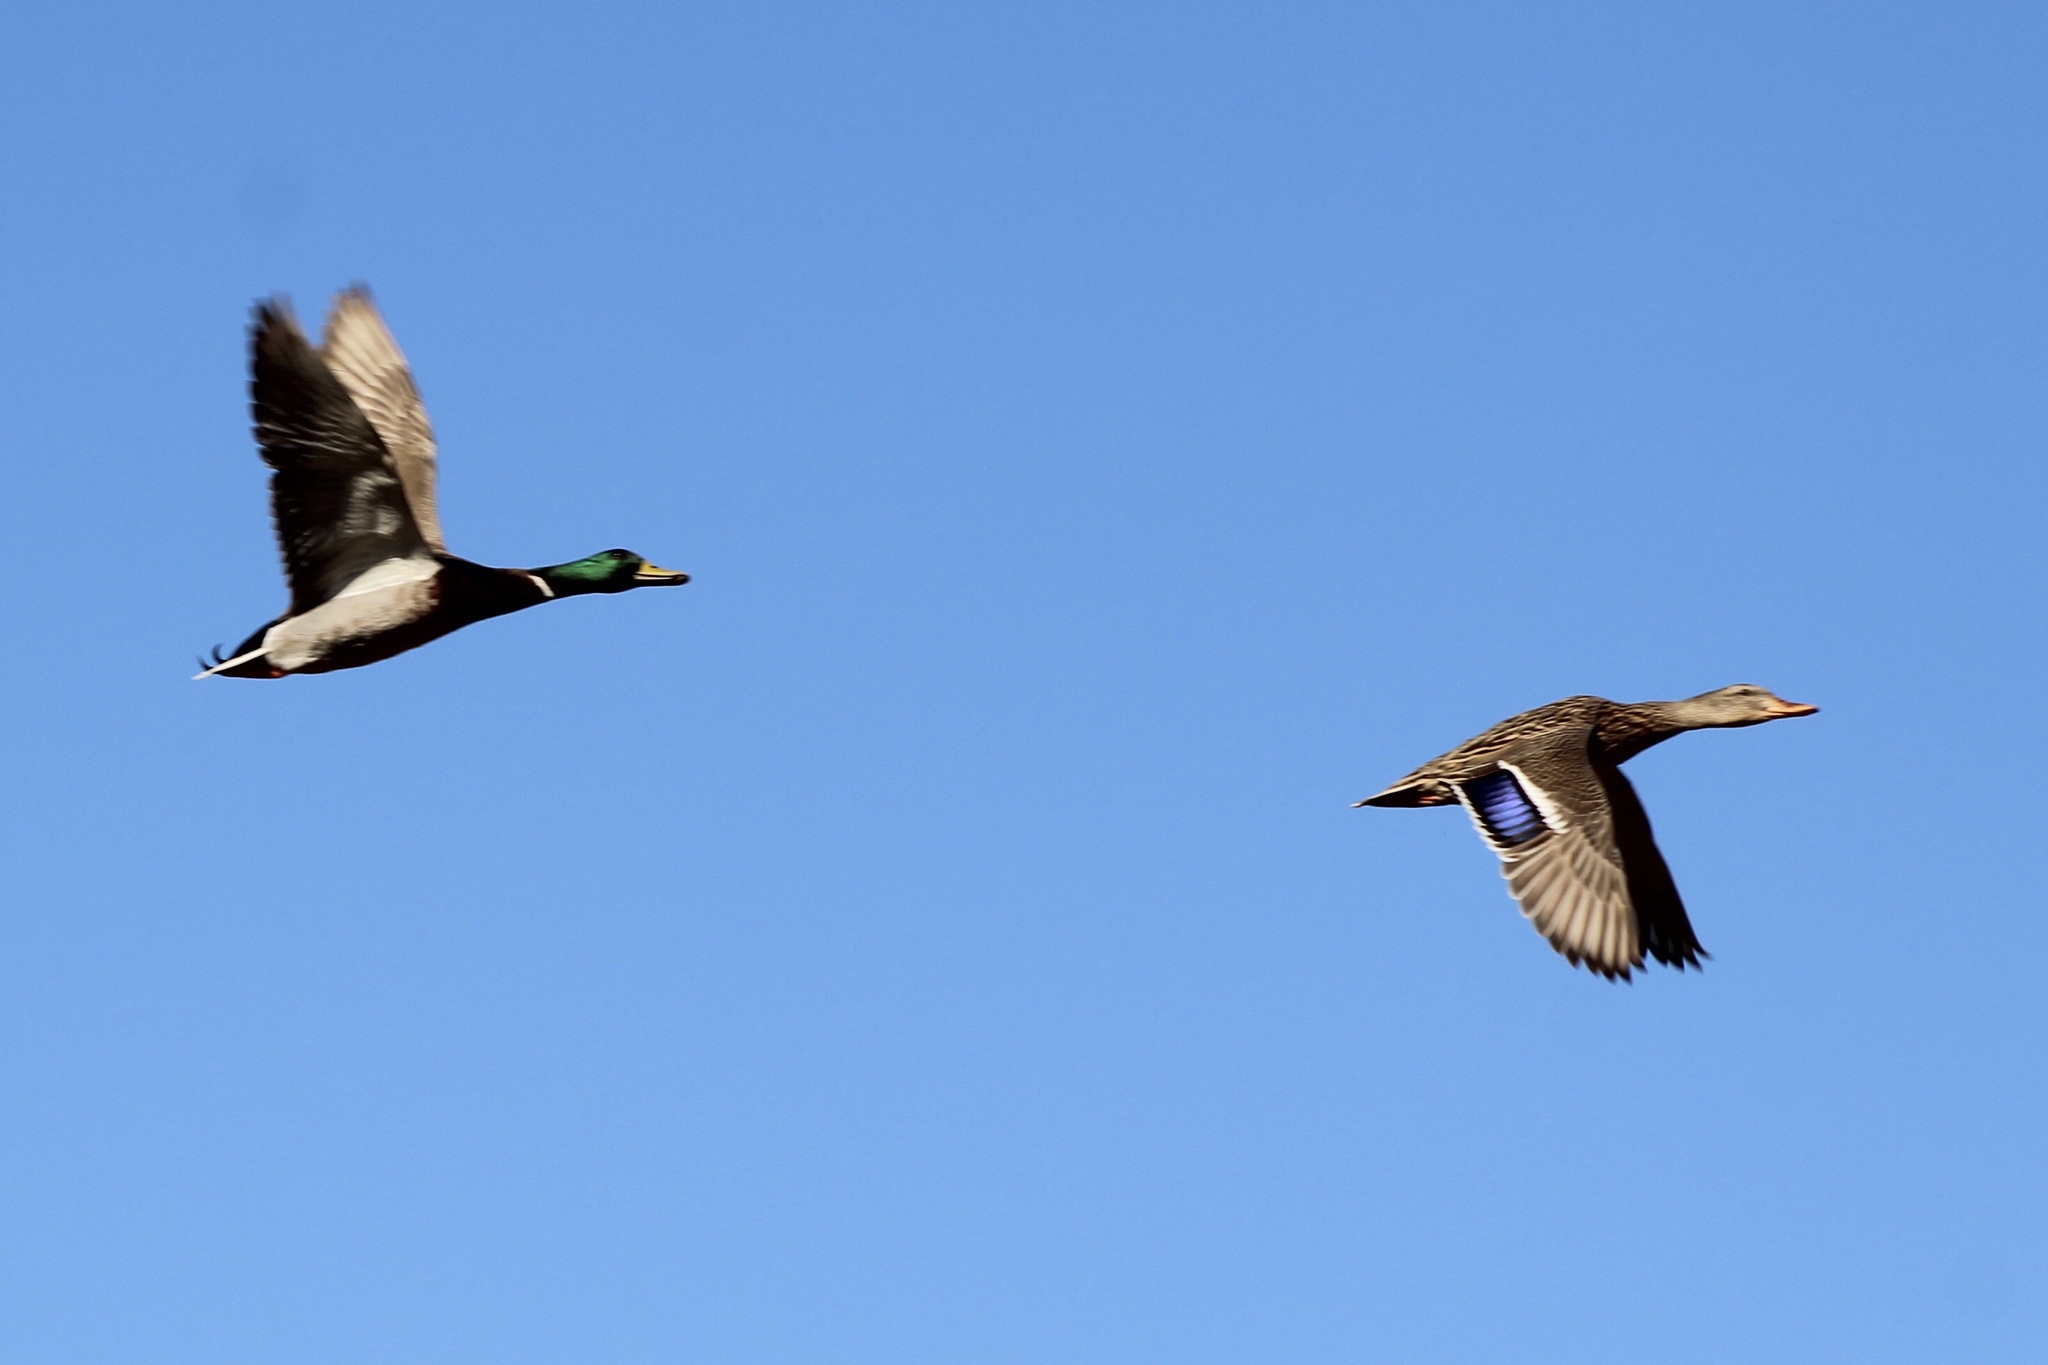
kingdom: Animalia
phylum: Chordata
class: Aves
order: Anseriformes
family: Anatidae
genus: Anas
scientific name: Anas platyrhynchos
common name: Mallard
